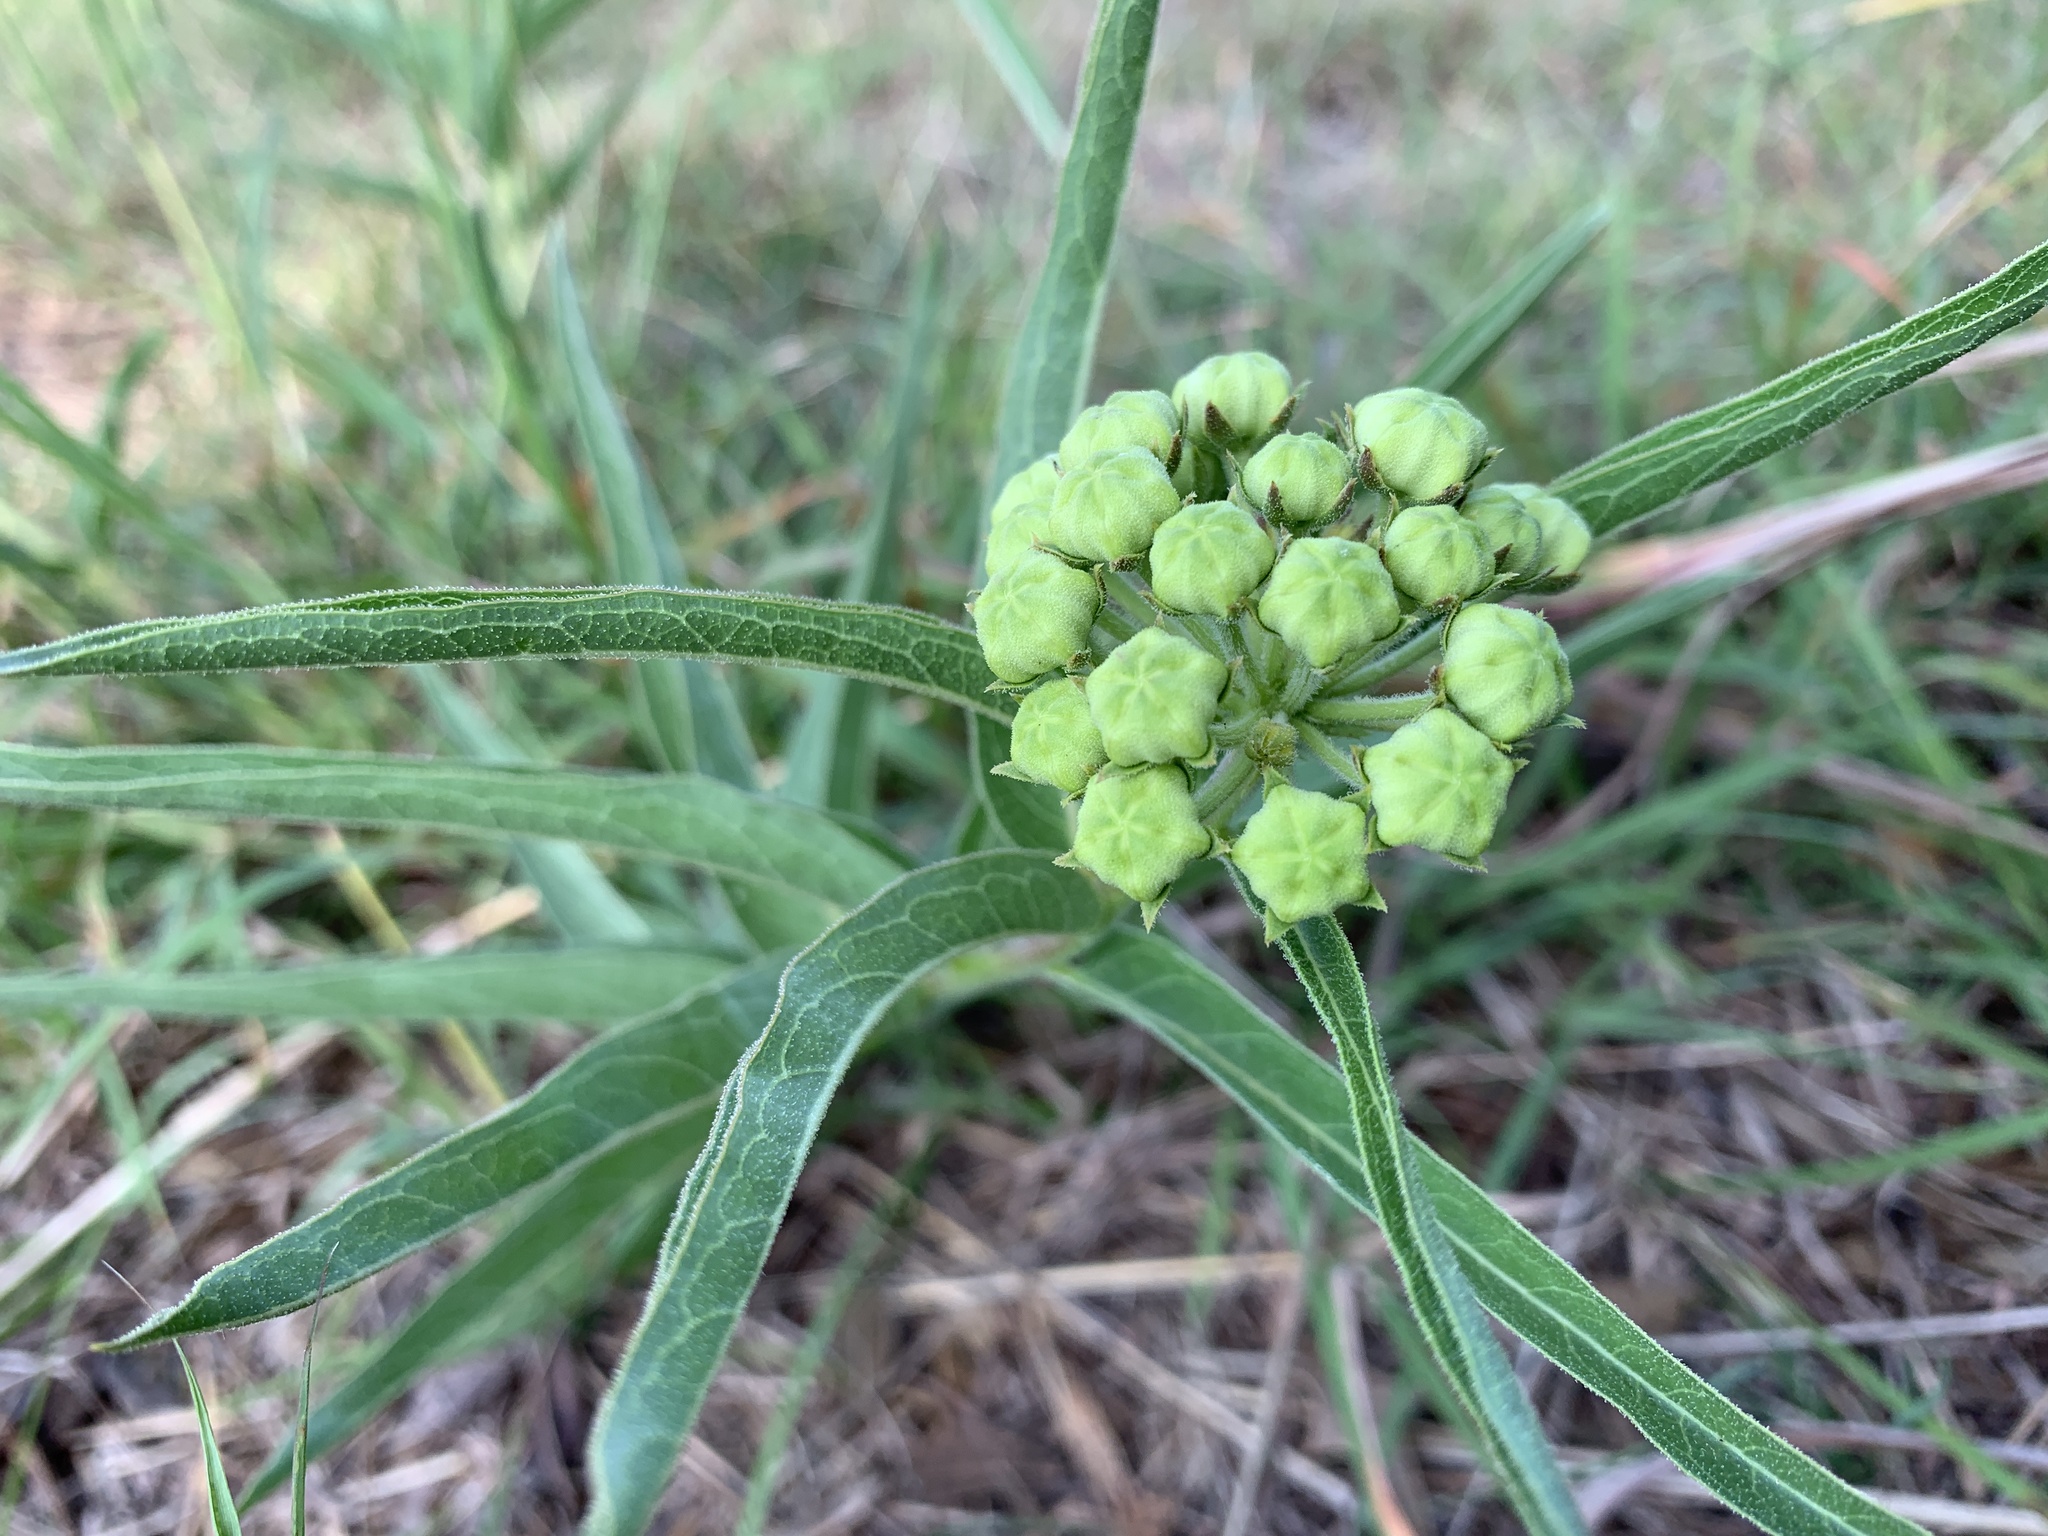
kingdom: Plantae
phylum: Tracheophyta
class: Magnoliopsida
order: Gentianales
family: Apocynaceae
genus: Asclepias
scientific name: Asclepias asperula
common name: Antelope horns
